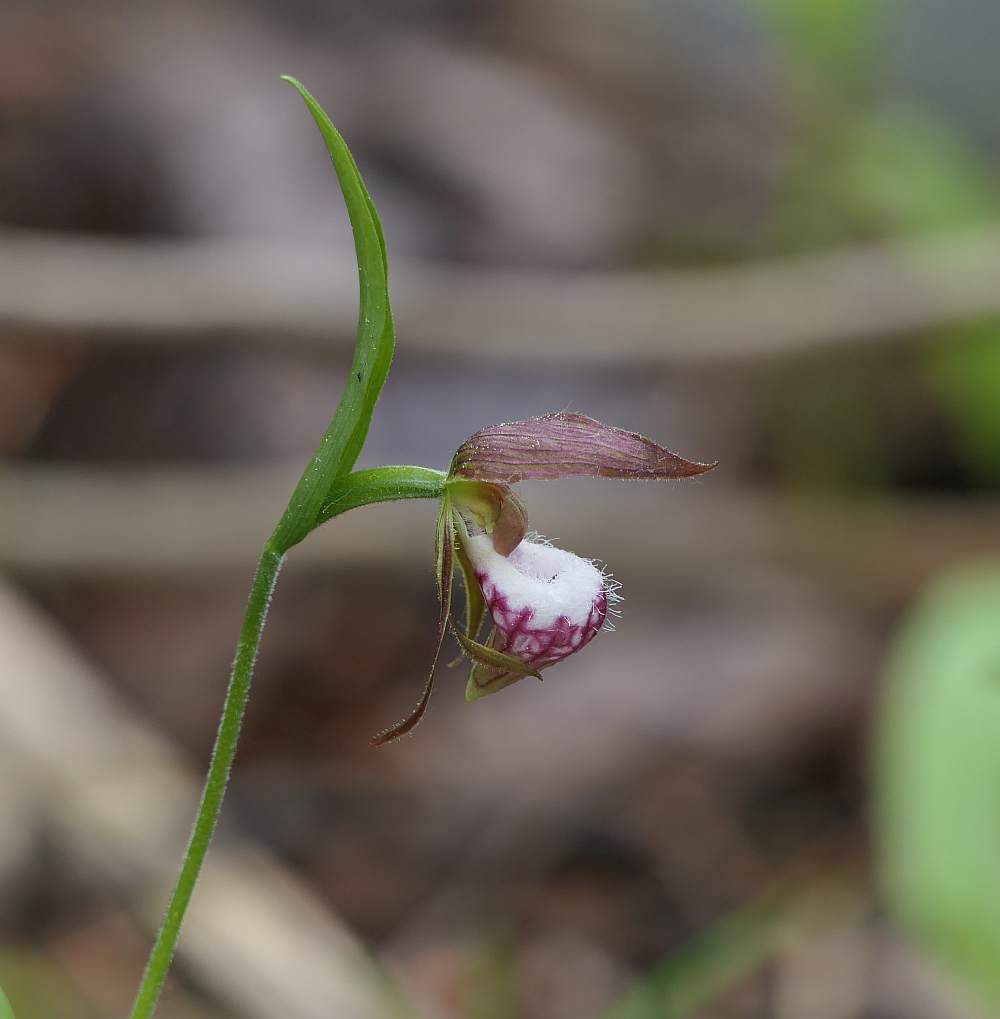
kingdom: Plantae
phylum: Tracheophyta
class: Liliopsida
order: Asparagales
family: Orchidaceae
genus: Cypripedium
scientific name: Cypripedium arietinum
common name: Ram's-head
